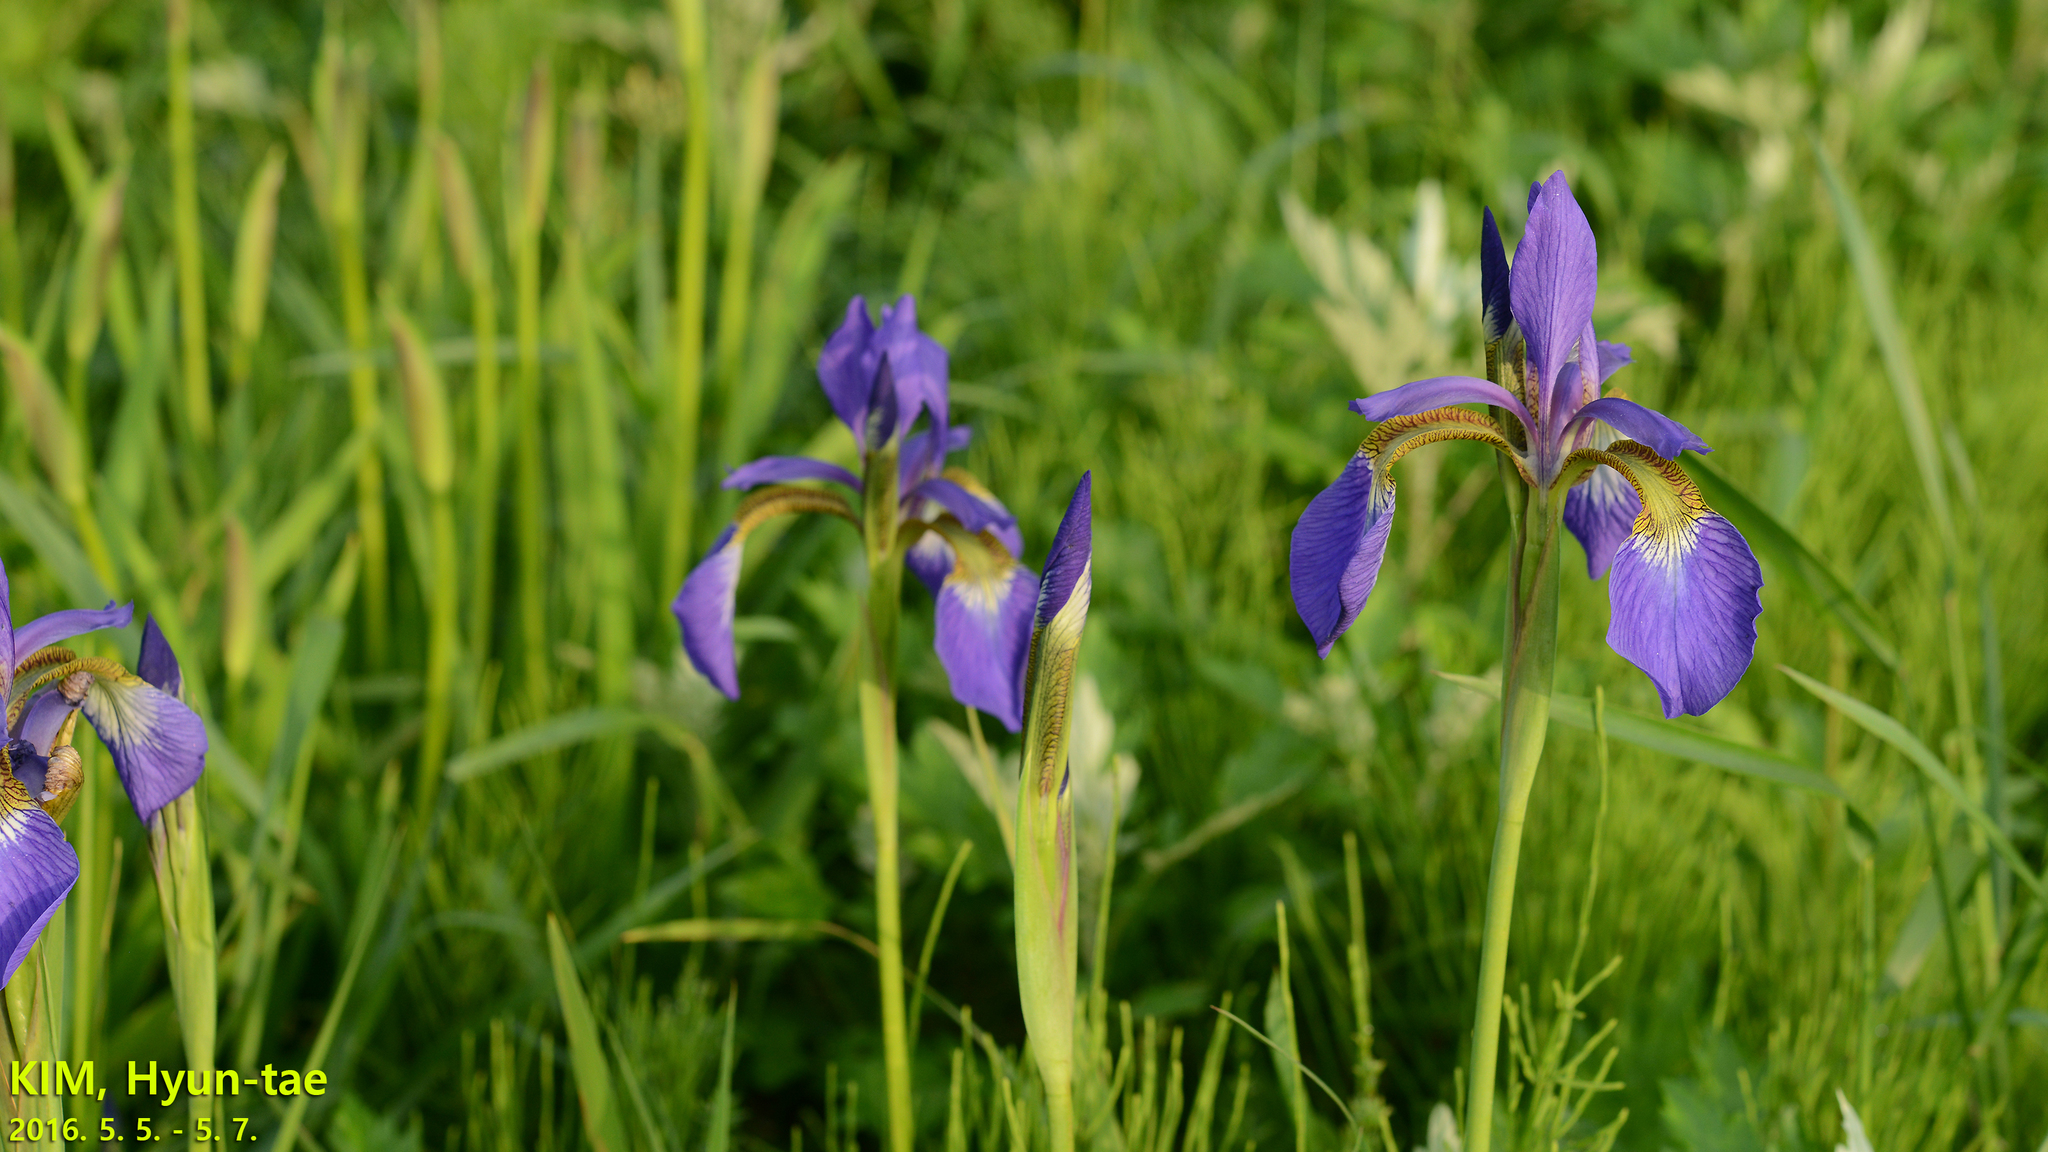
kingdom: Plantae
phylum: Tracheophyta
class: Liliopsida
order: Asparagales
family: Iridaceae
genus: Iris
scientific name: Iris sanguinea
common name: Blood iris
